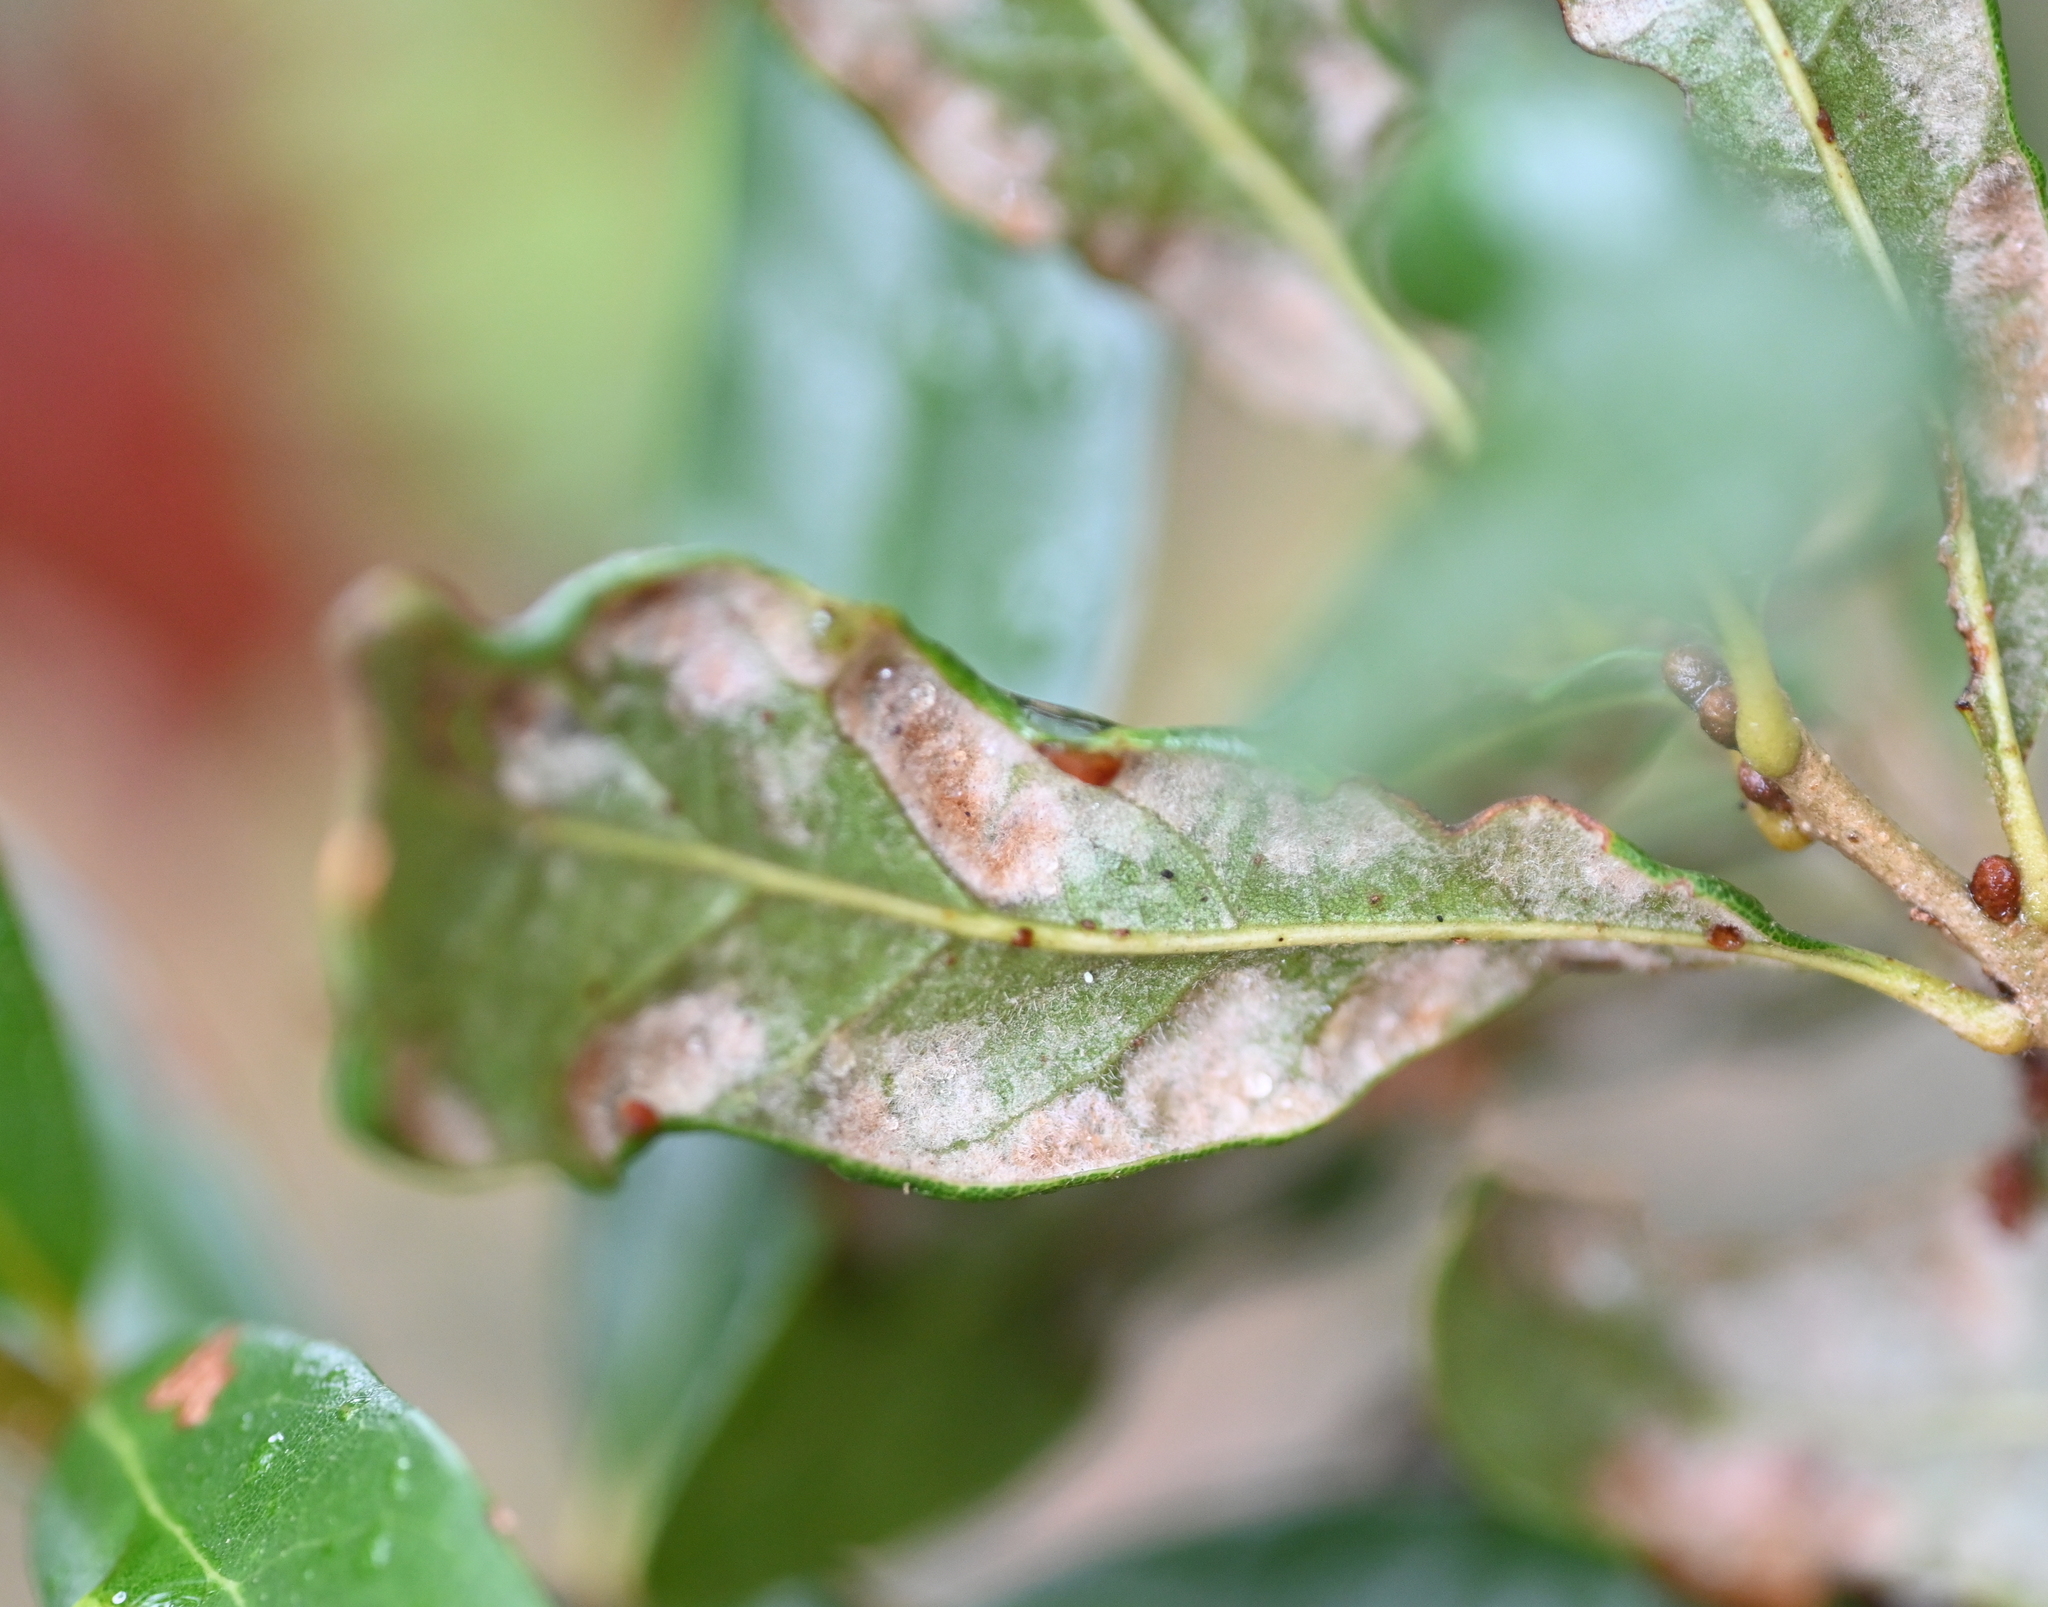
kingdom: Animalia
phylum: Arthropoda
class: Arachnida
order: Trombidiformes
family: Eriophyidae
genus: Aceria
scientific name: Aceria quercina
